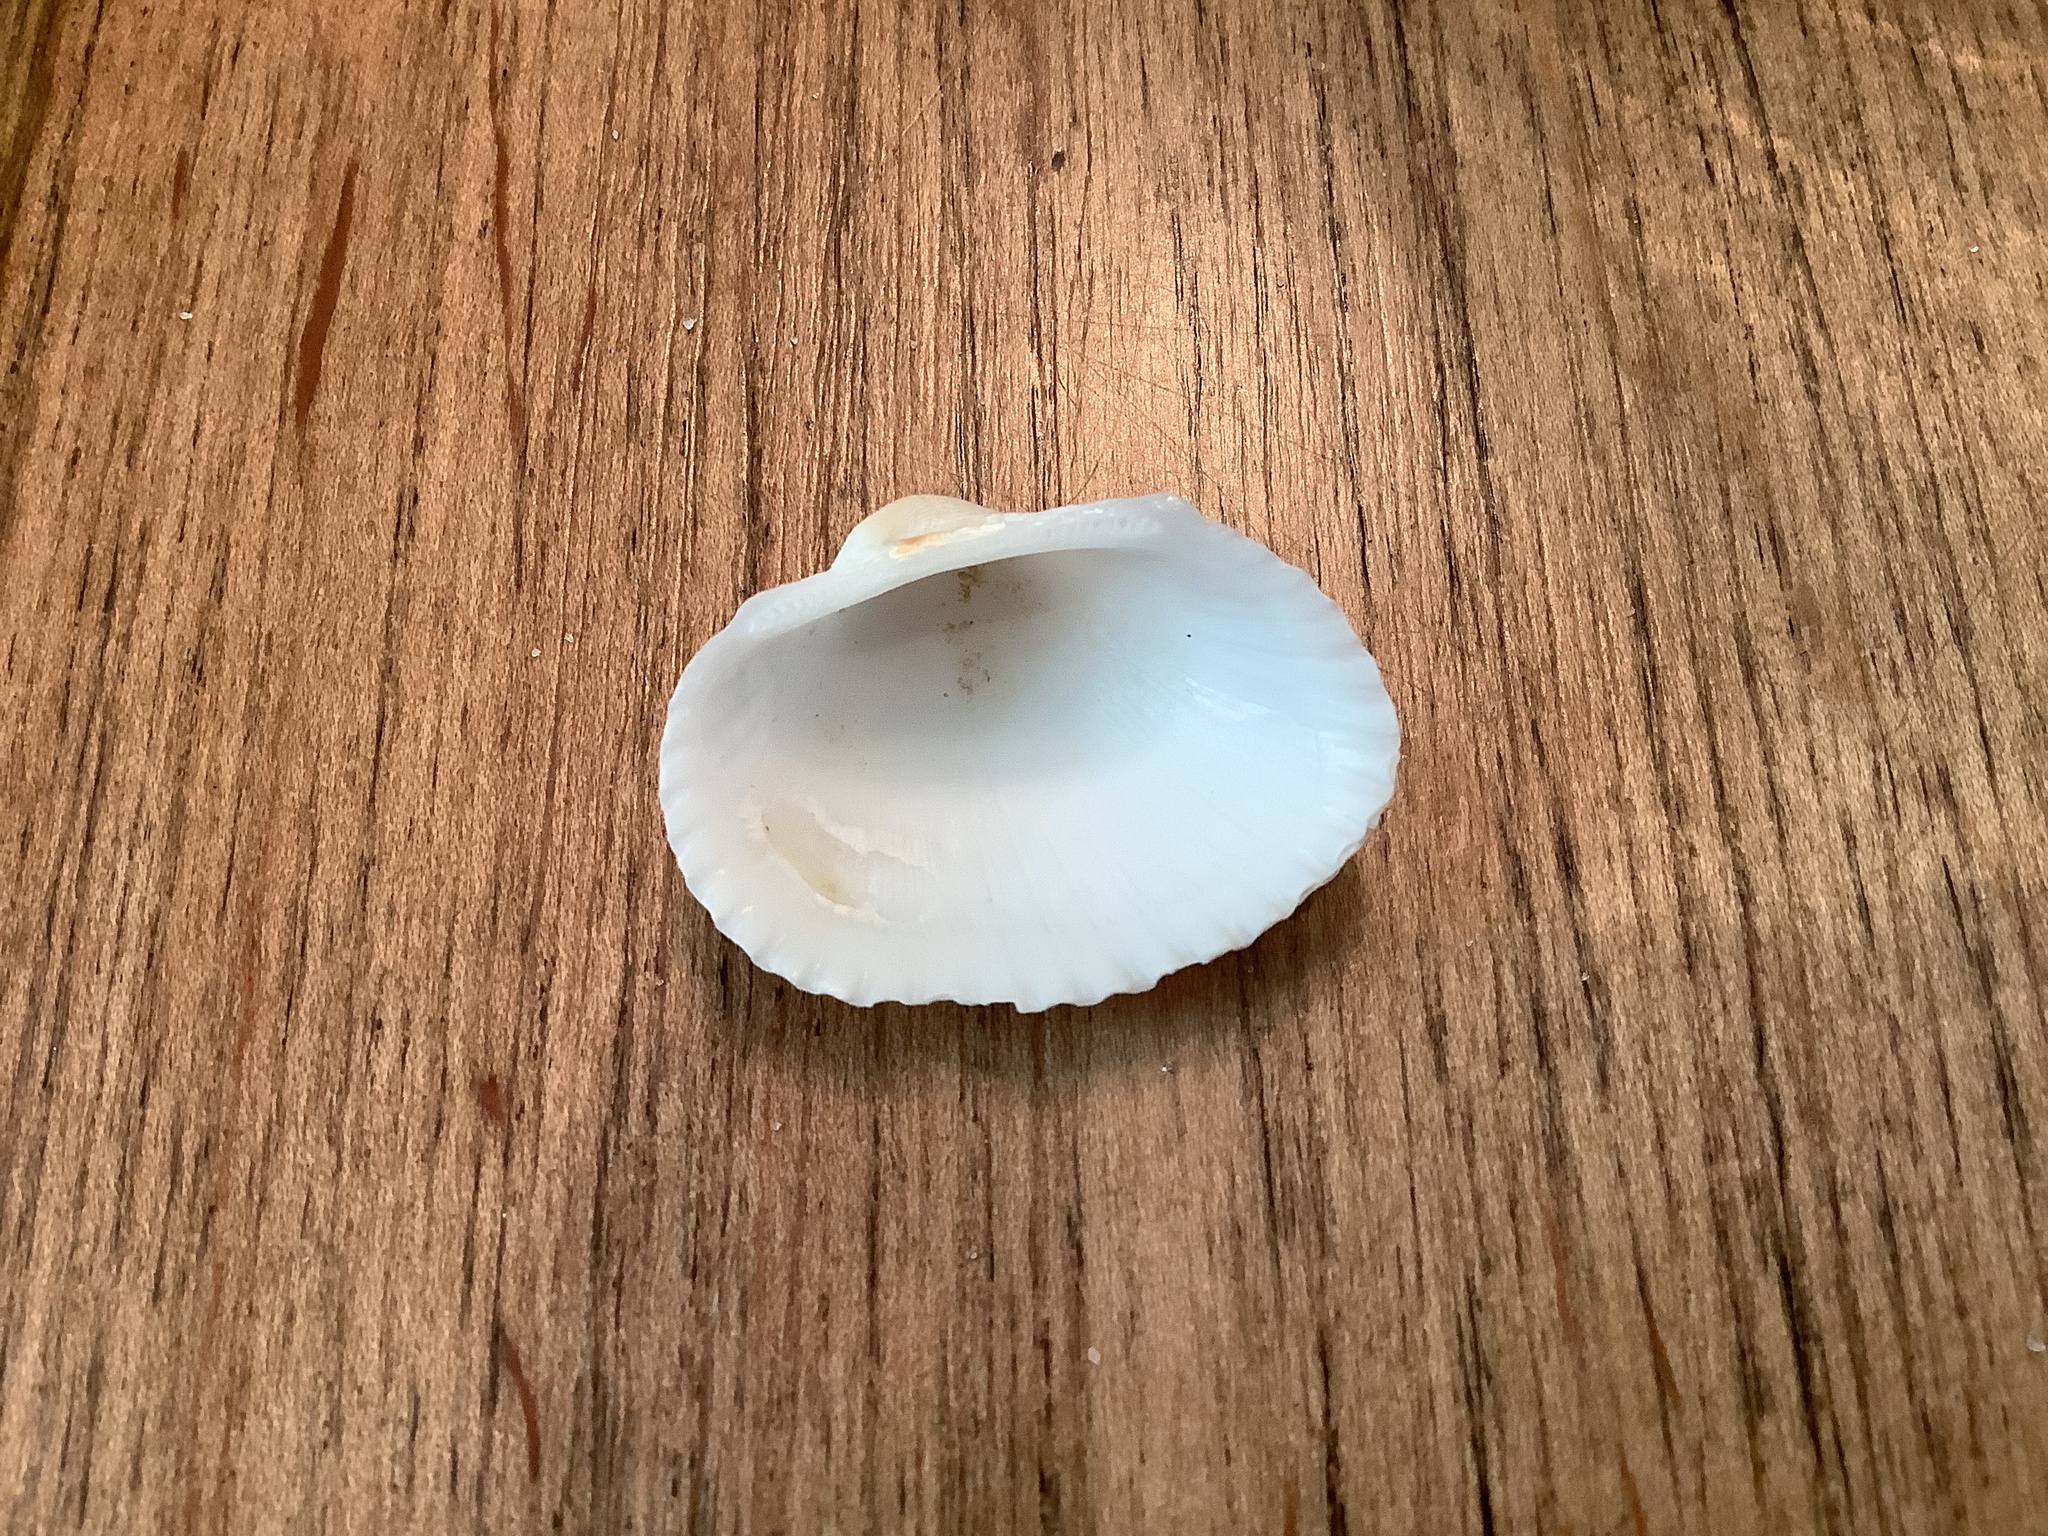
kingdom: Animalia
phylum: Mollusca
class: Bivalvia
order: Arcida
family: Arcidae
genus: Anadara
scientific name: Anadara transversa
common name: Transverse ark
